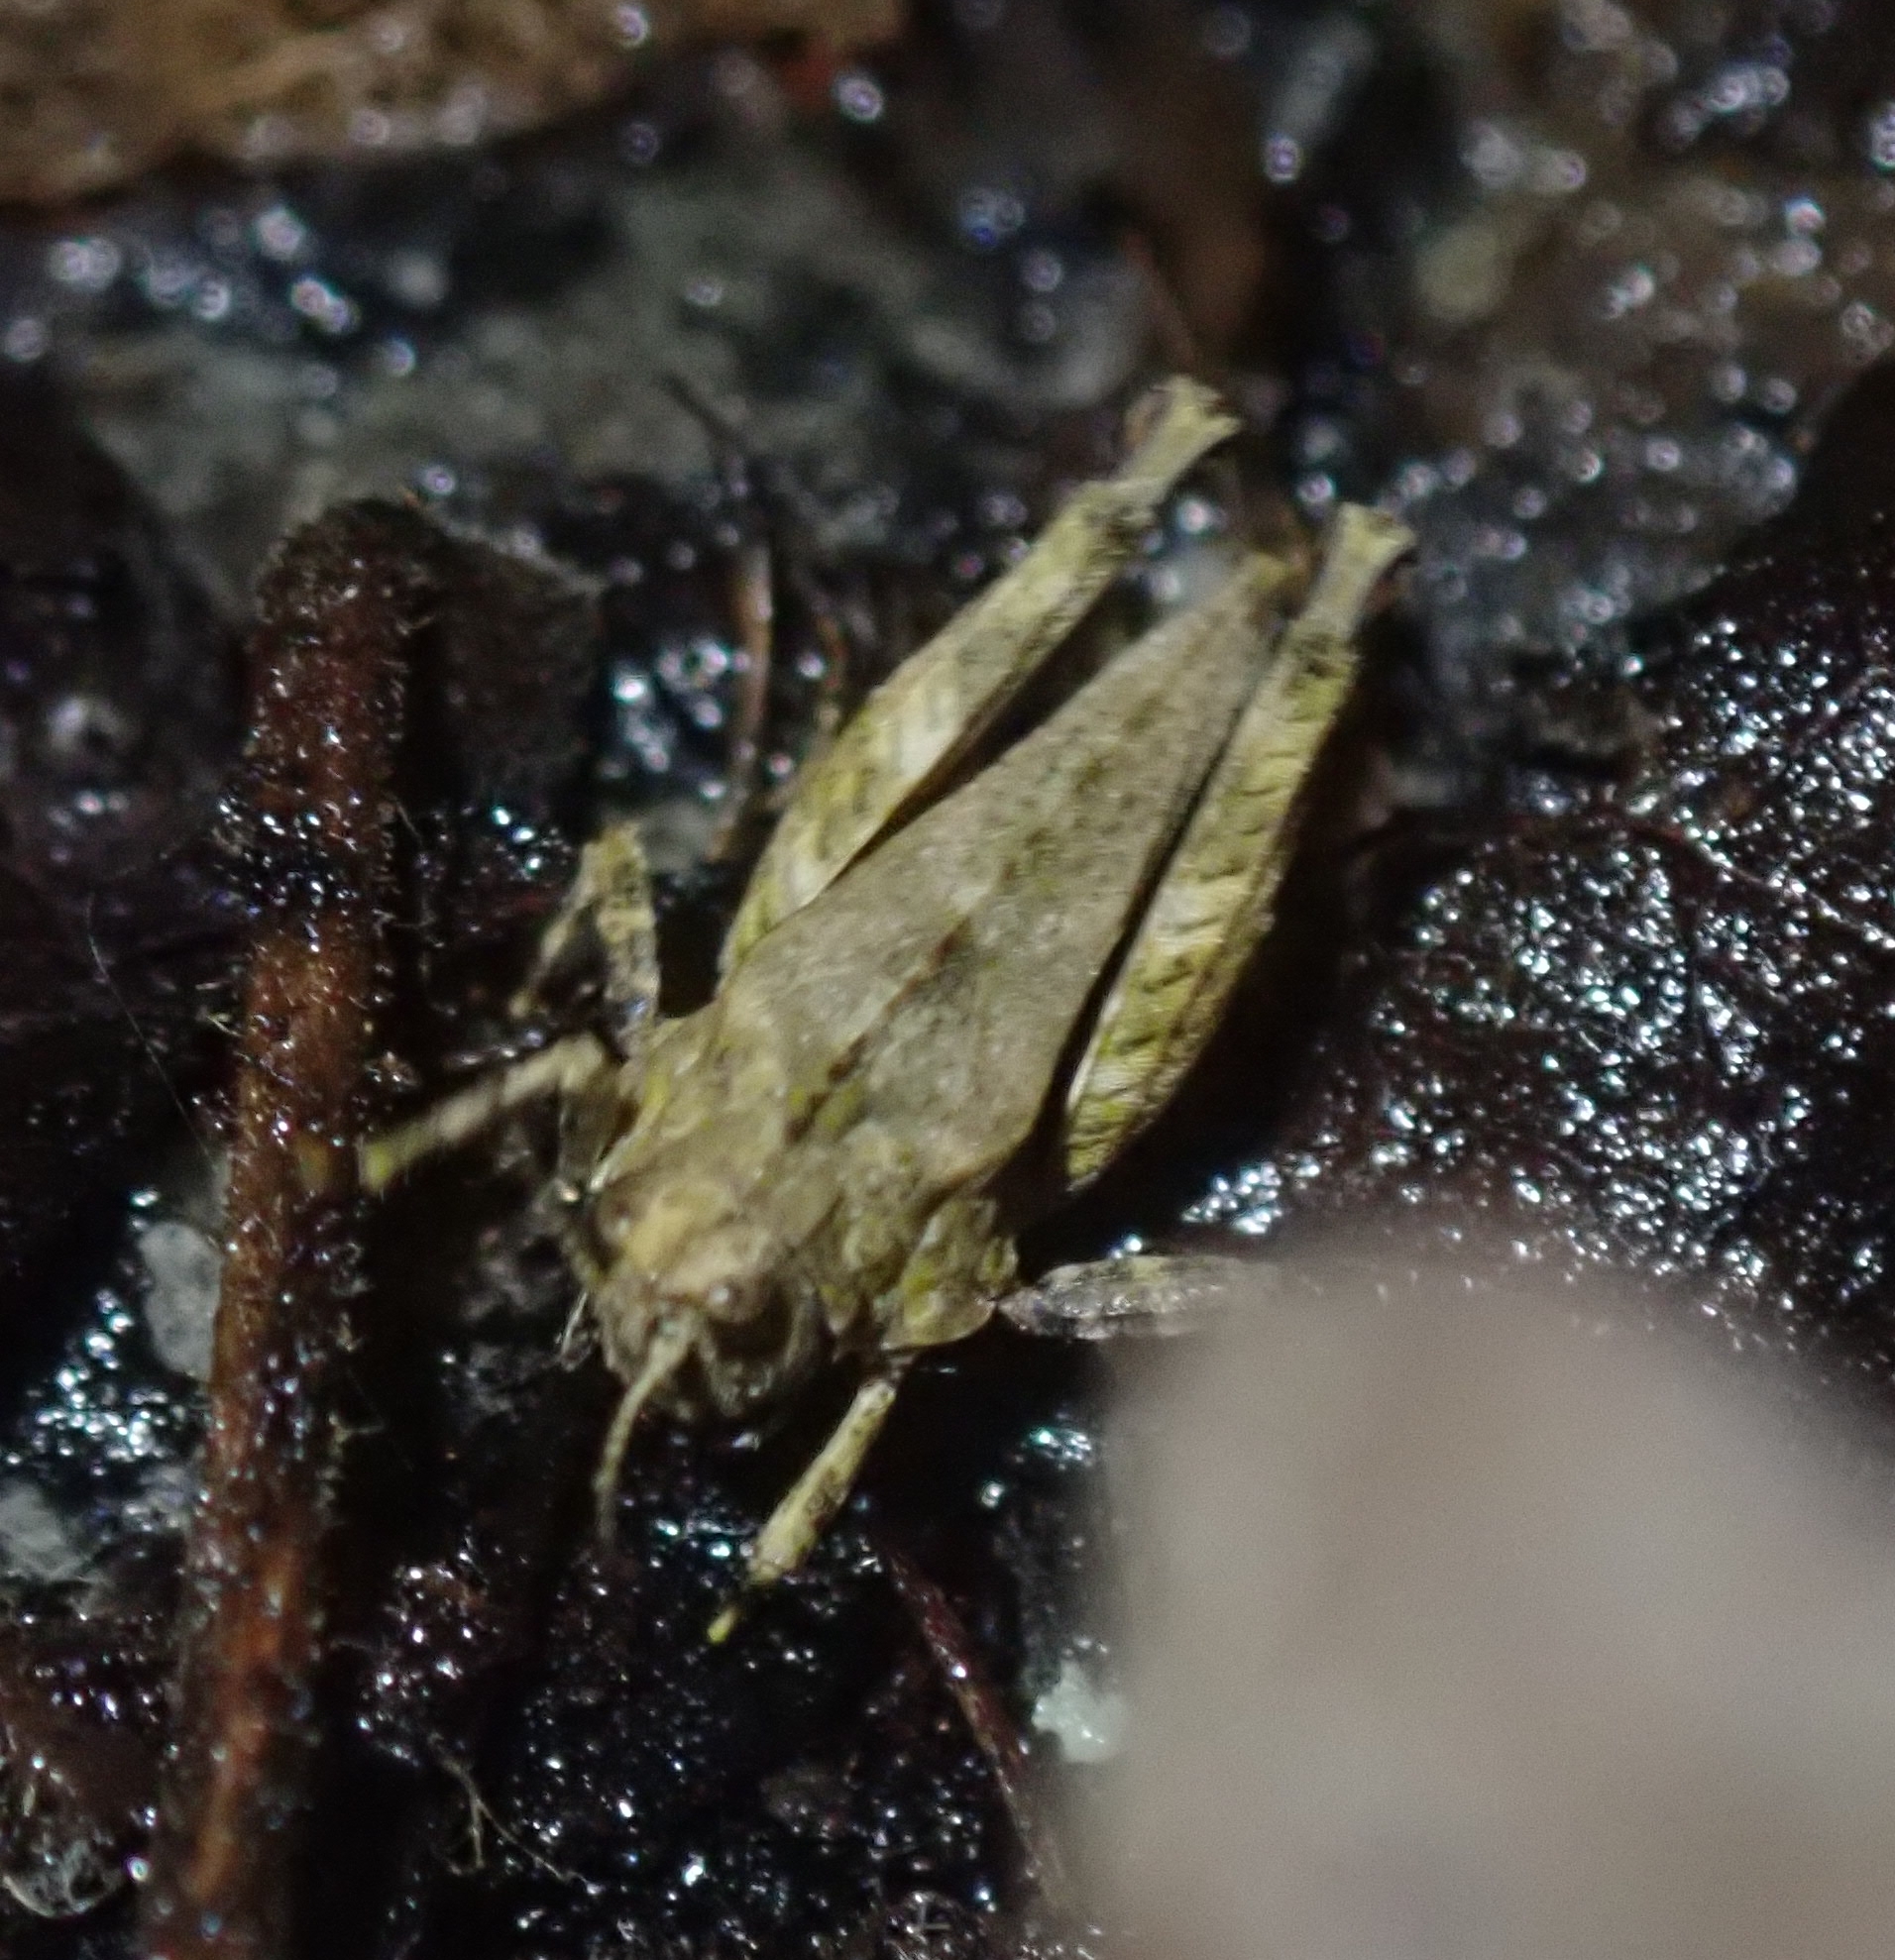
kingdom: Animalia
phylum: Arthropoda
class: Insecta
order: Orthoptera
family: Tetrigidae
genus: Tetrix
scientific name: Tetrix undulata
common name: Common groundhopper
